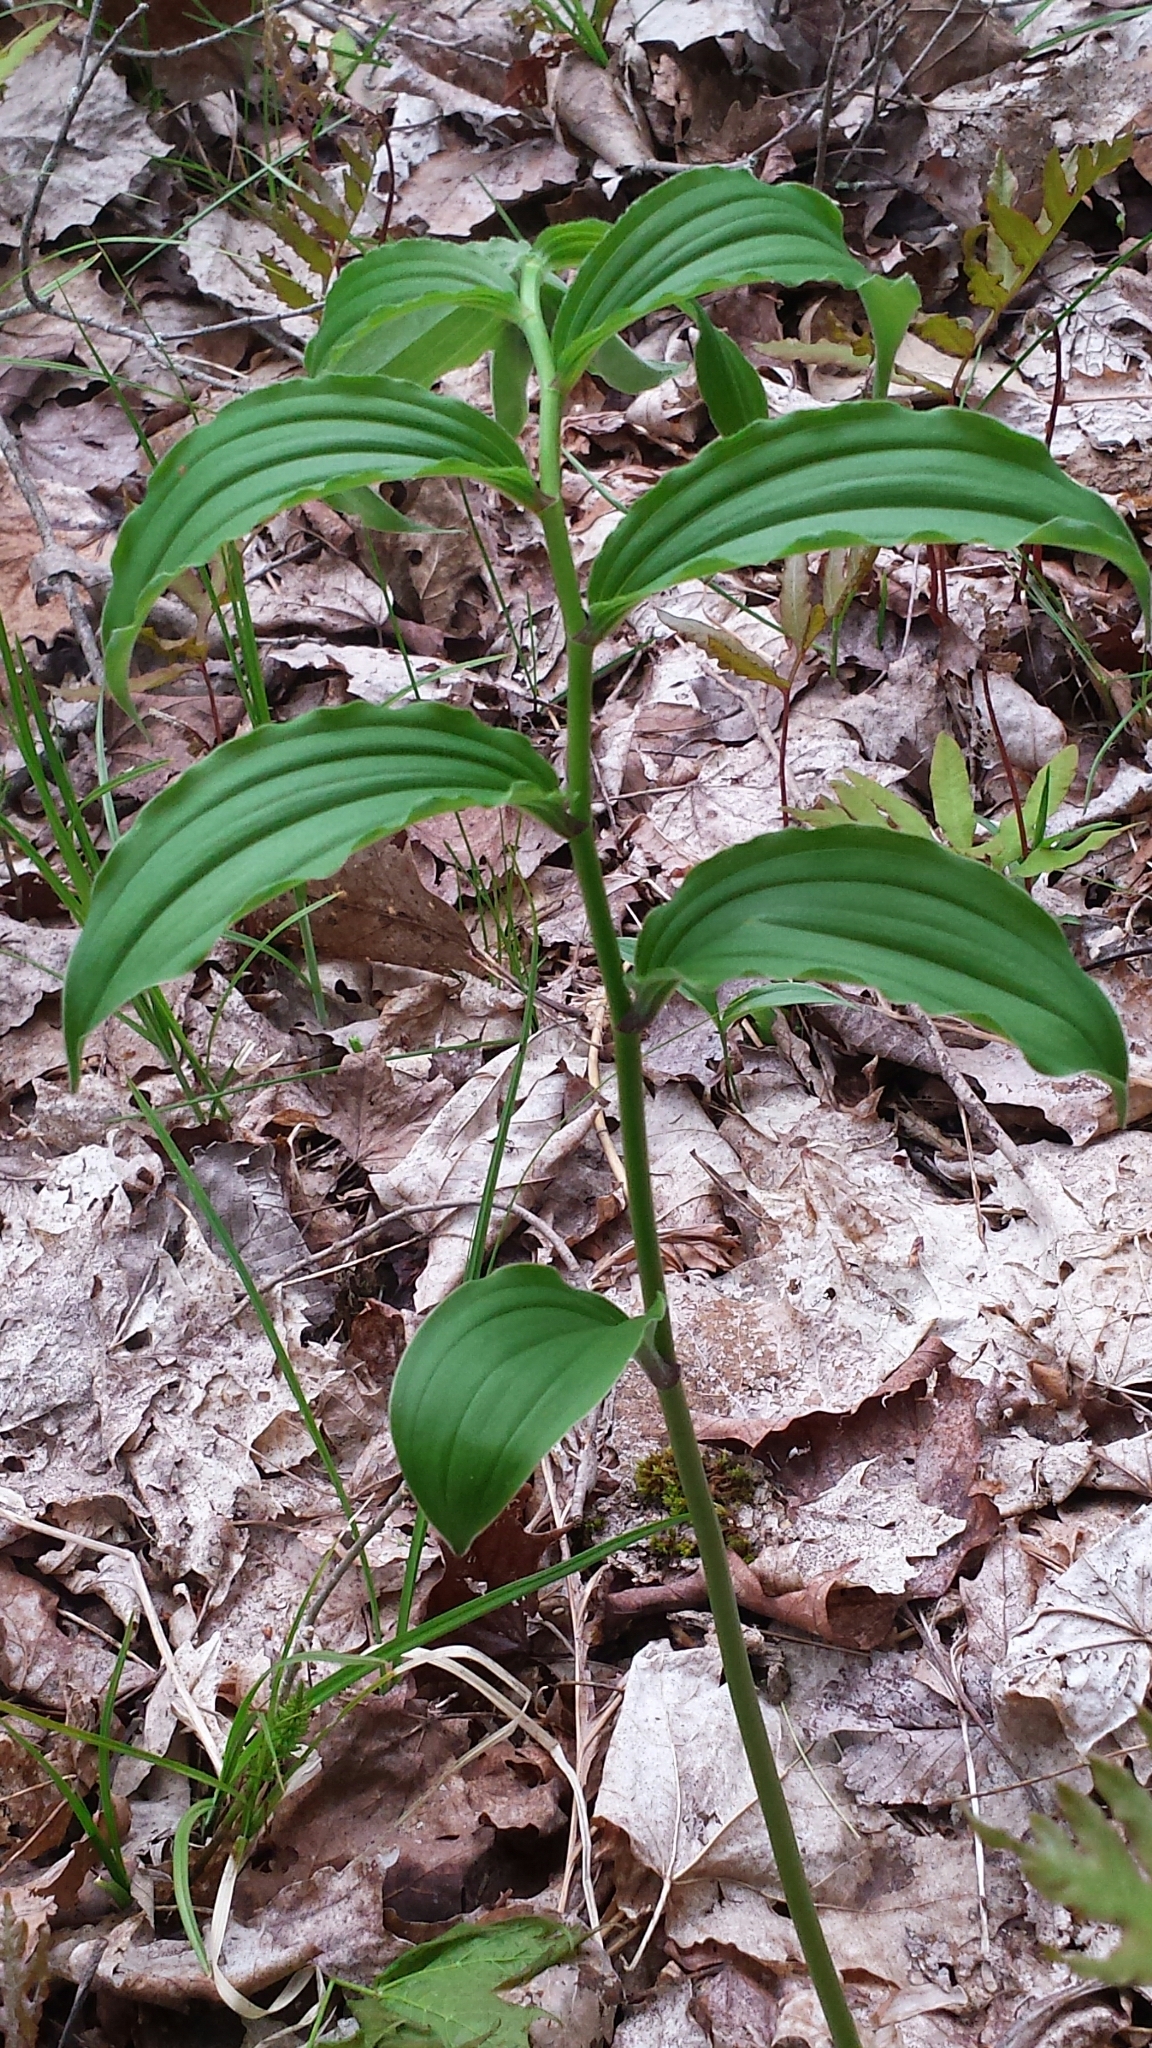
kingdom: Plantae
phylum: Tracheophyta
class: Liliopsida
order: Asparagales
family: Asparagaceae
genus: Maianthemum
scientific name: Maianthemum racemosum
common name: False spikenard
